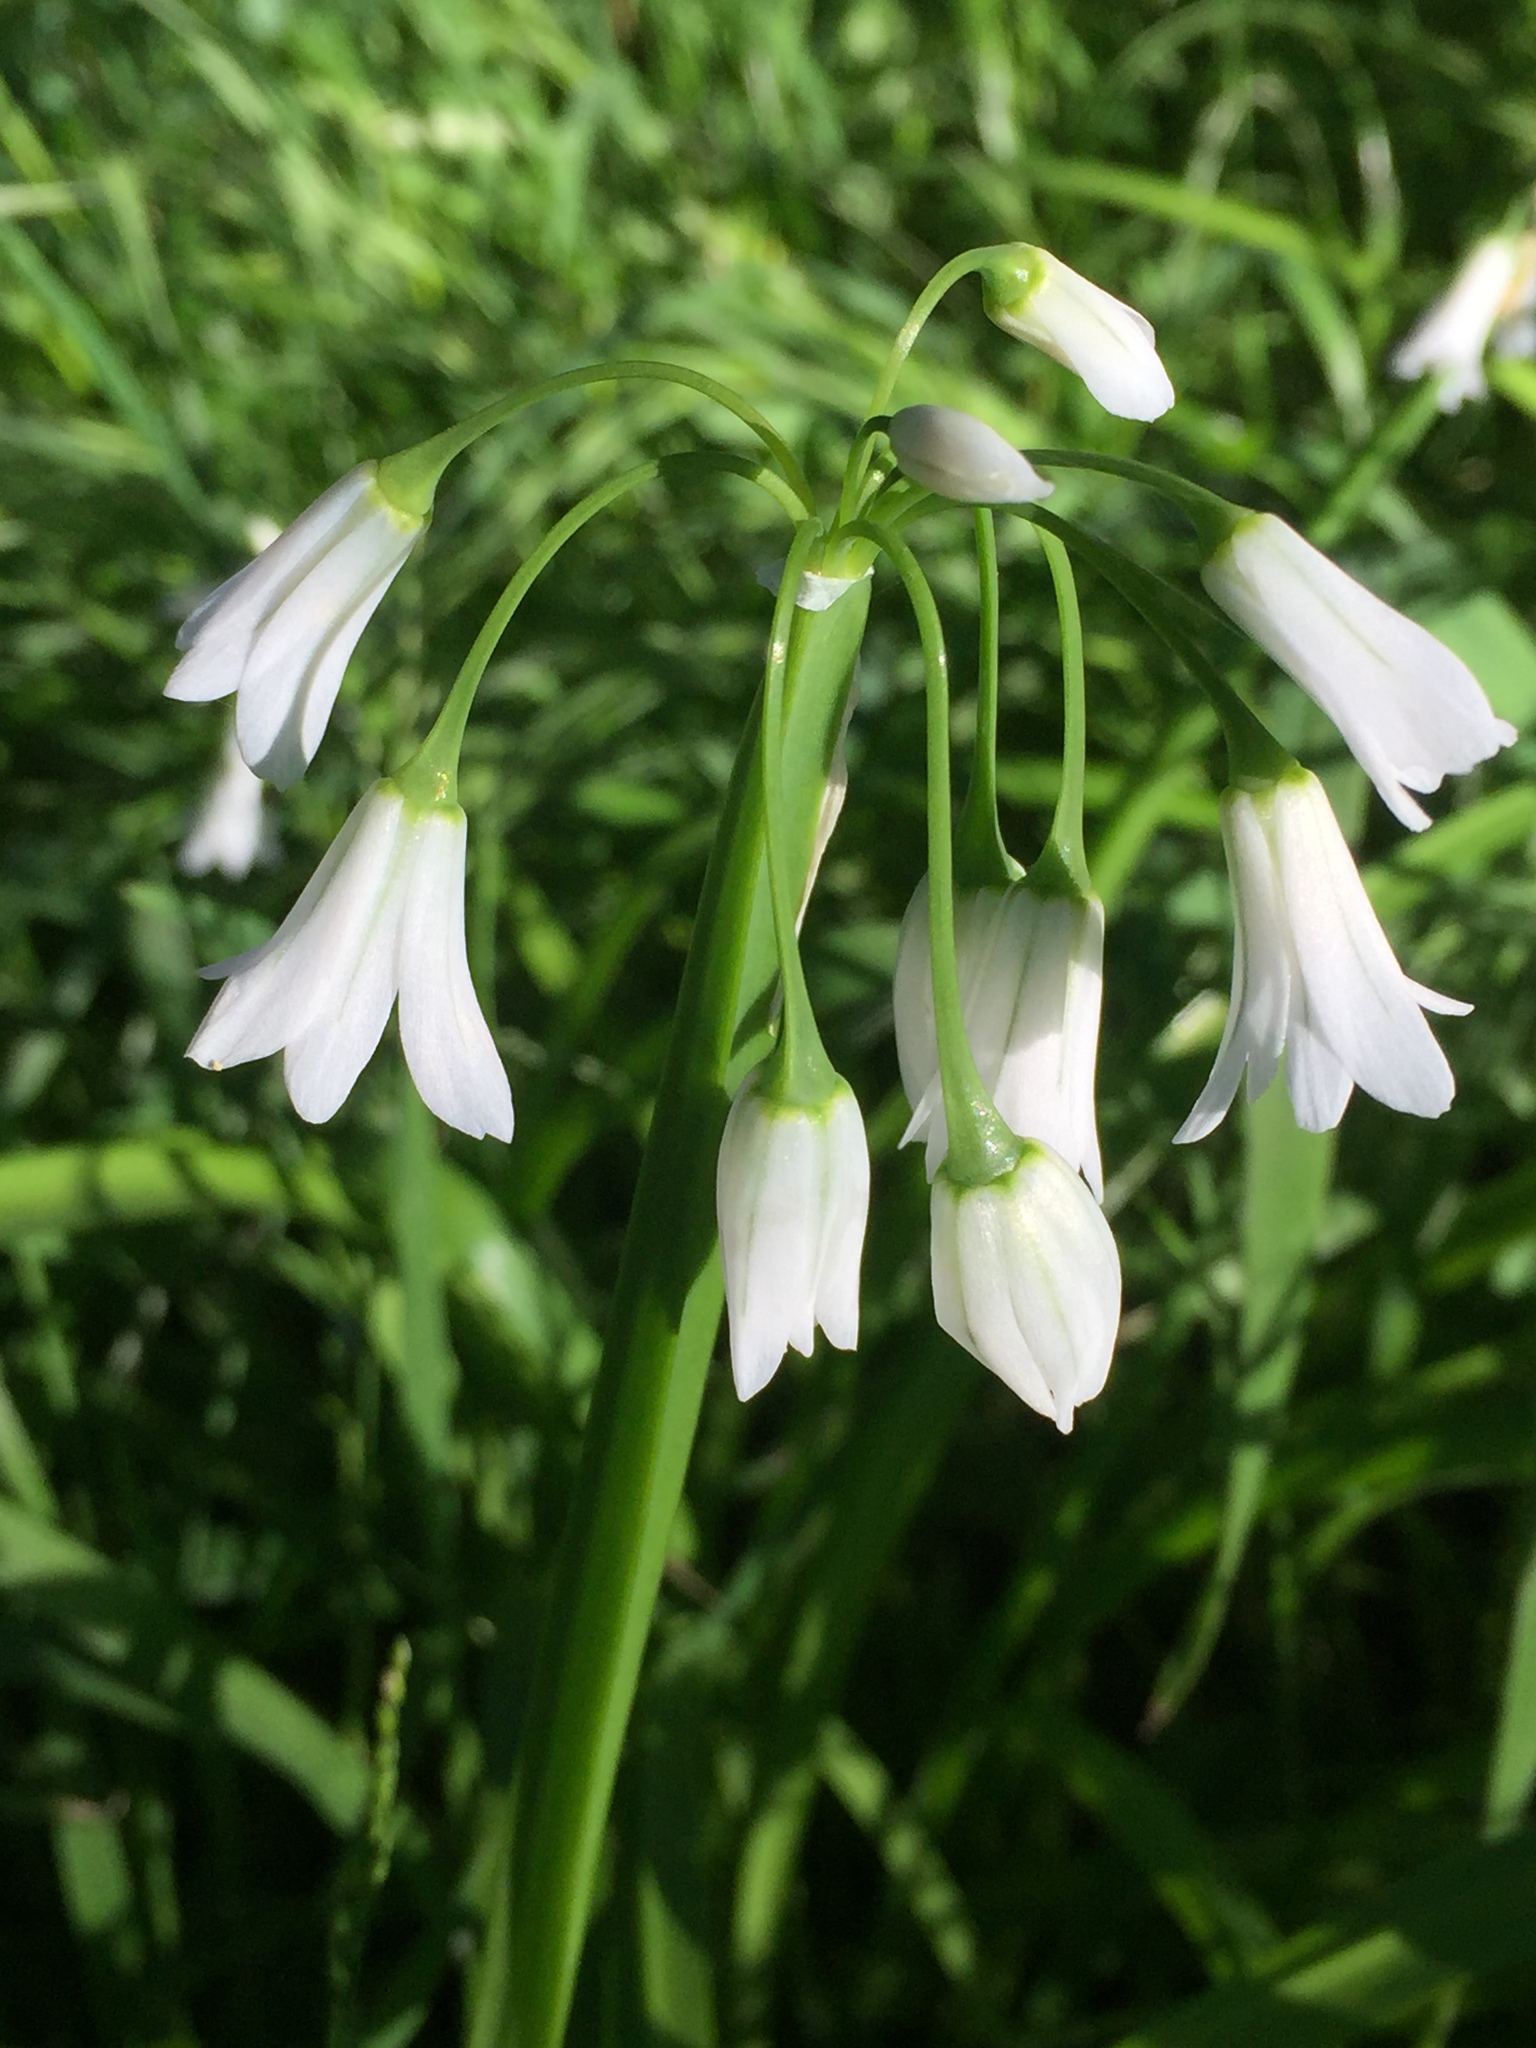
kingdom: Plantae
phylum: Tracheophyta
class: Liliopsida
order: Asparagales
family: Amaryllidaceae
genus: Allium
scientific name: Allium triquetrum
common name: Three-cornered garlic
